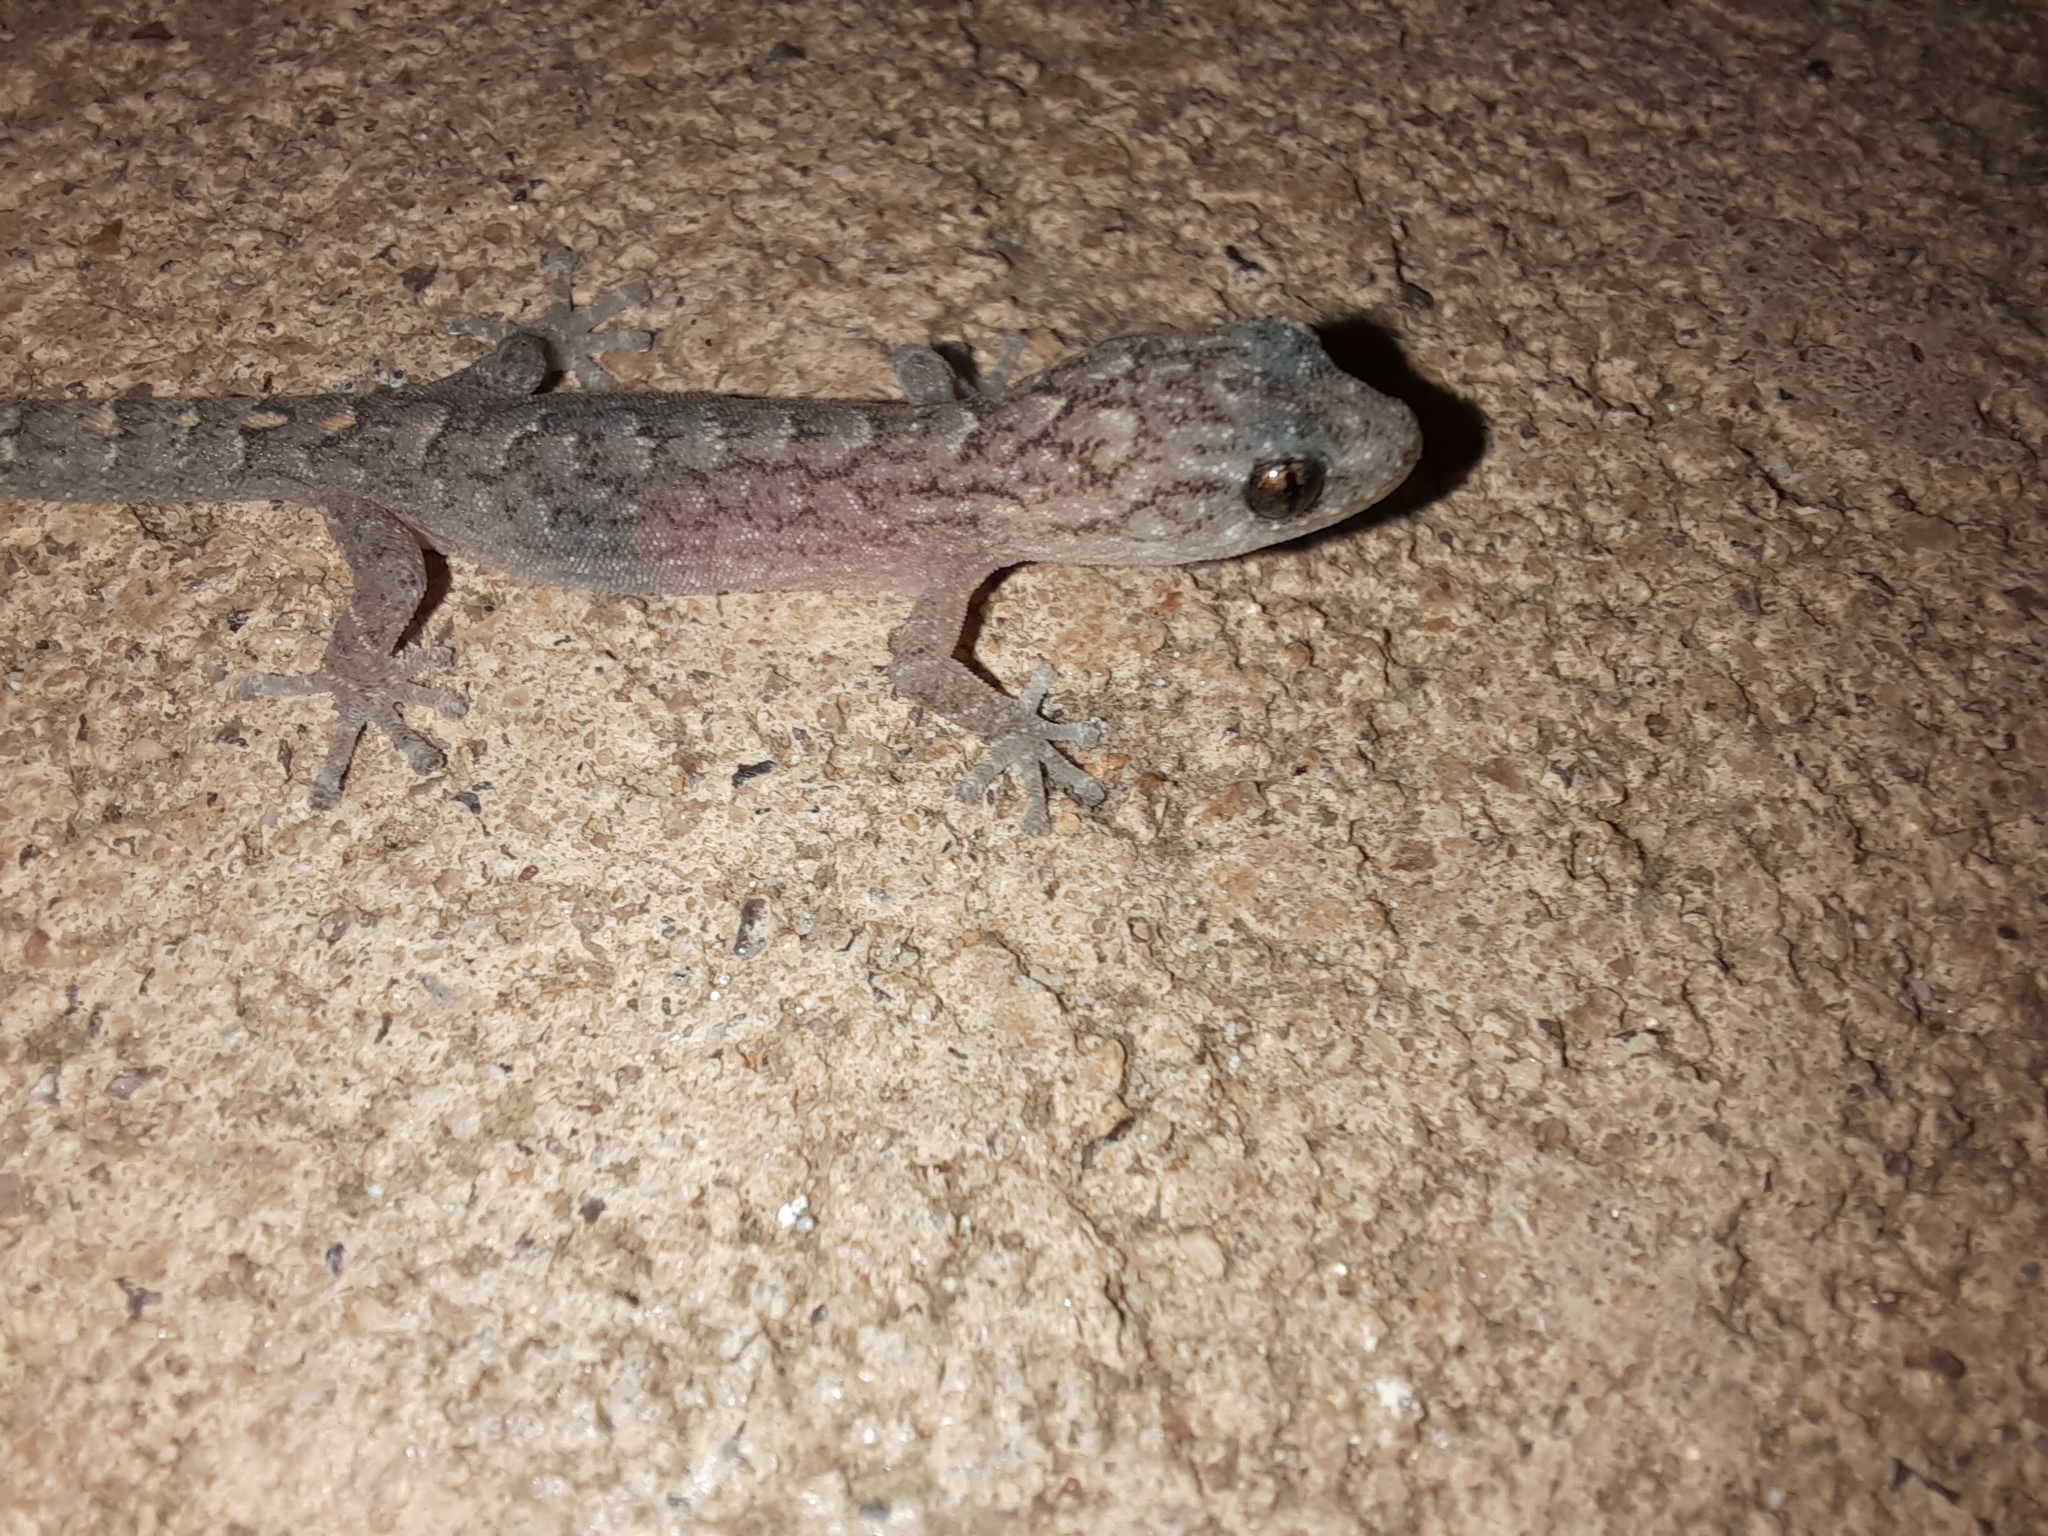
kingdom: Animalia
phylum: Chordata
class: Squamata
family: Gekkonidae
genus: Christinus
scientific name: Christinus marmoratus
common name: Marbled gecko
